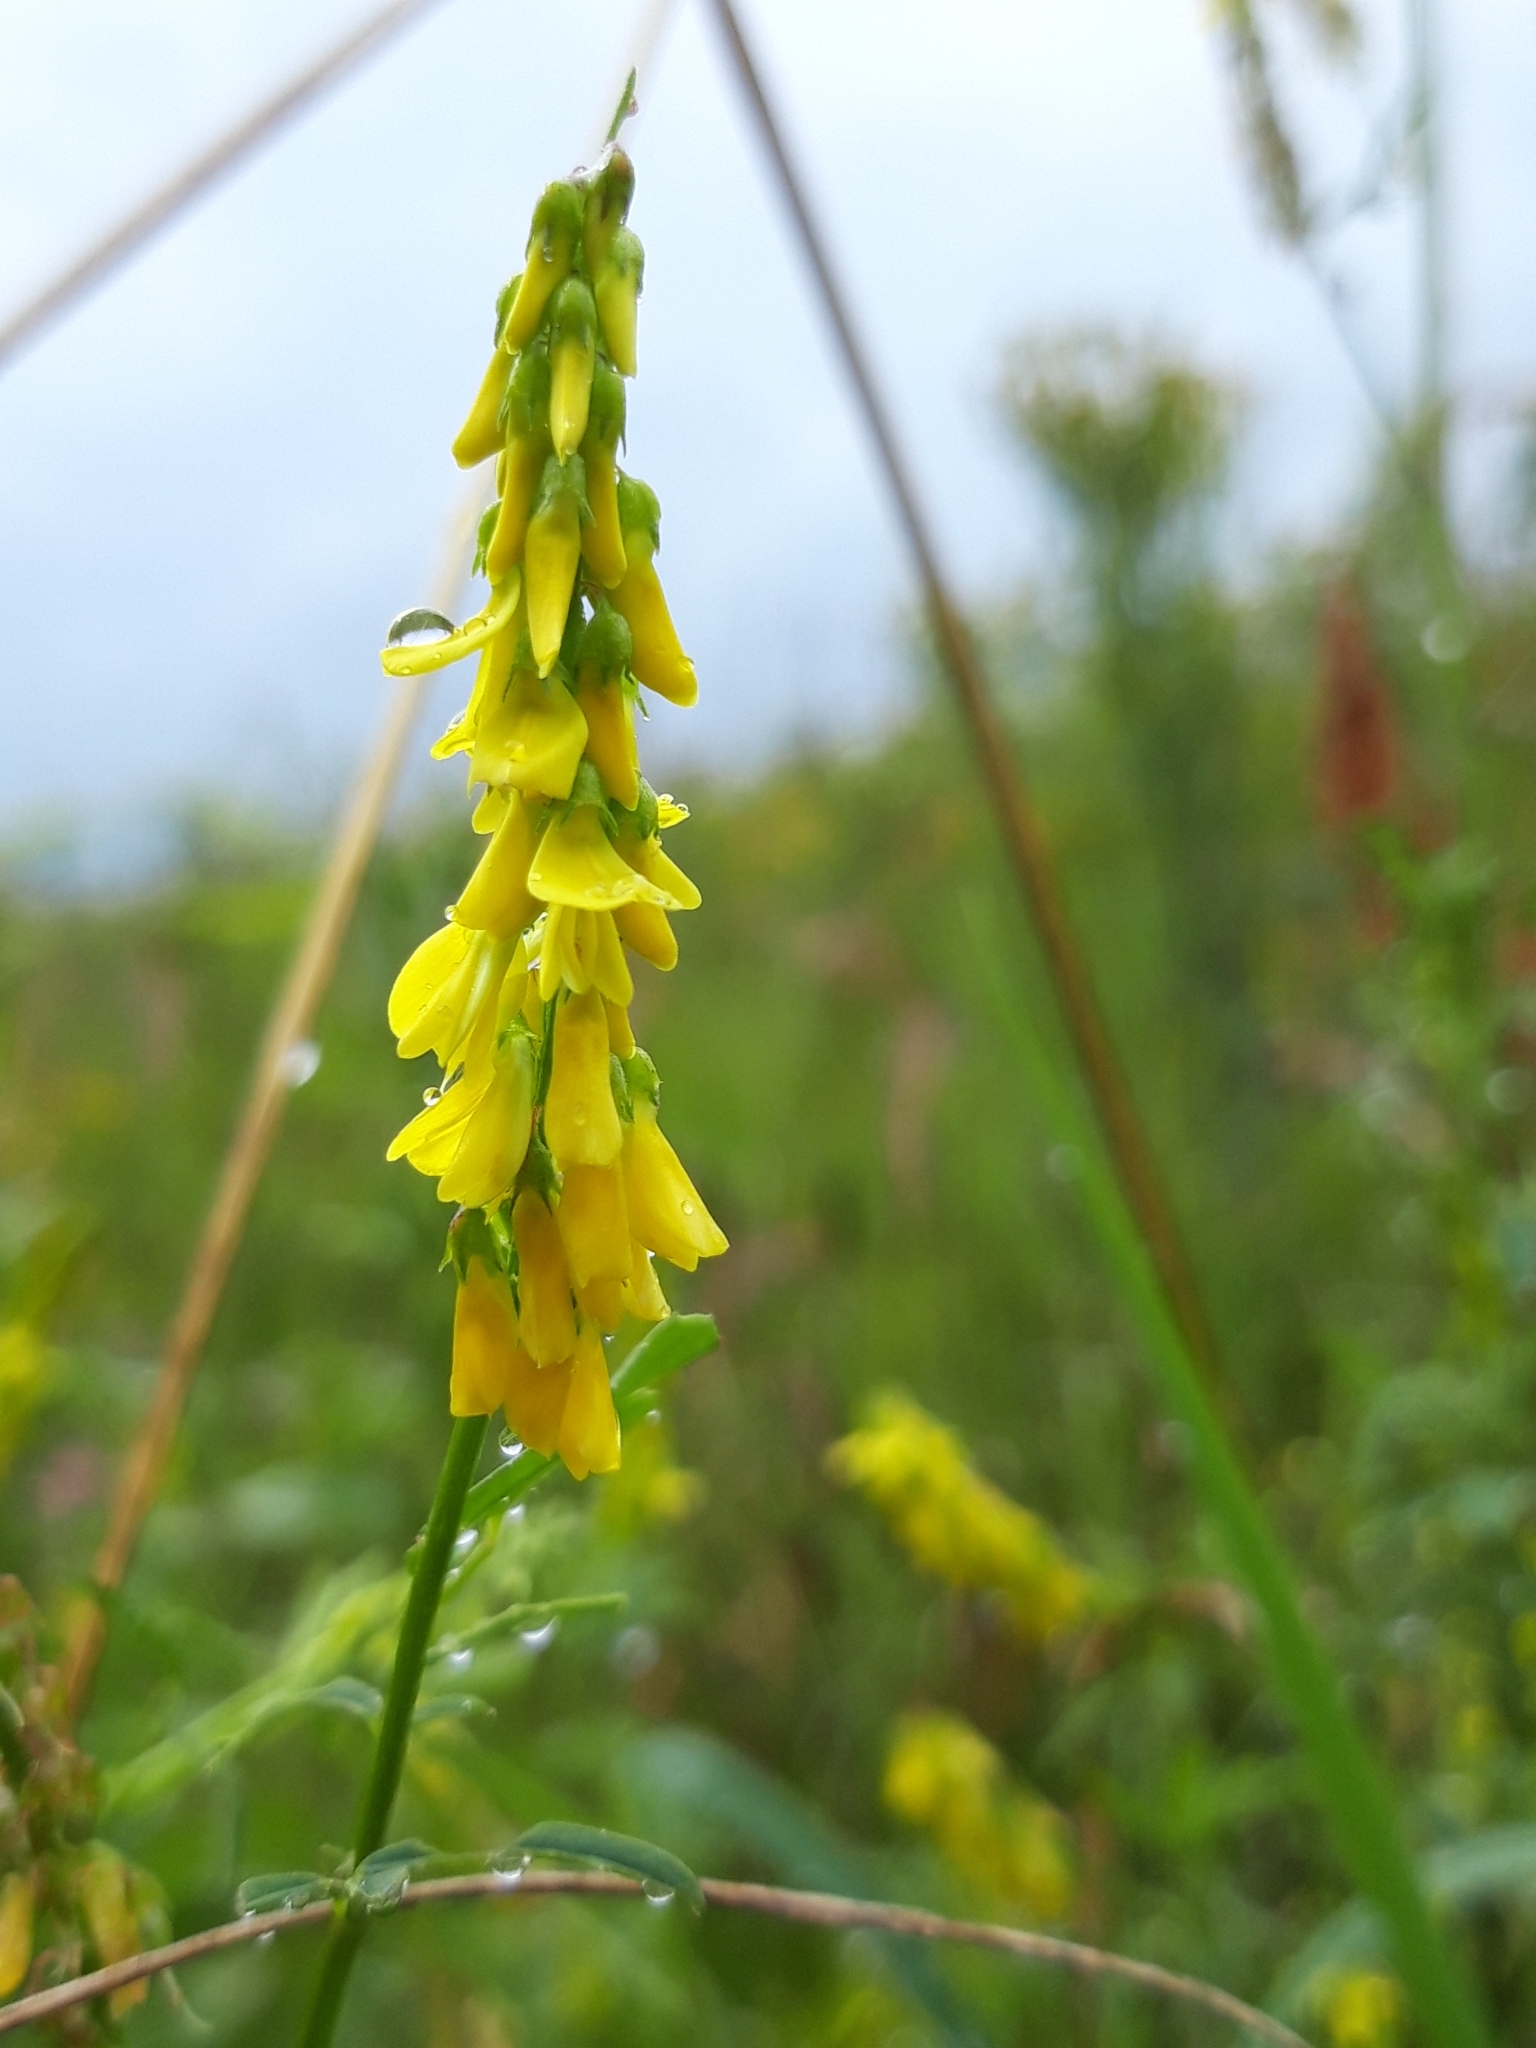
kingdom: Plantae
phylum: Tracheophyta
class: Magnoliopsida
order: Fabales
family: Fabaceae
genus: Melilotus
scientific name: Melilotus officinalis
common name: Sweetclover
